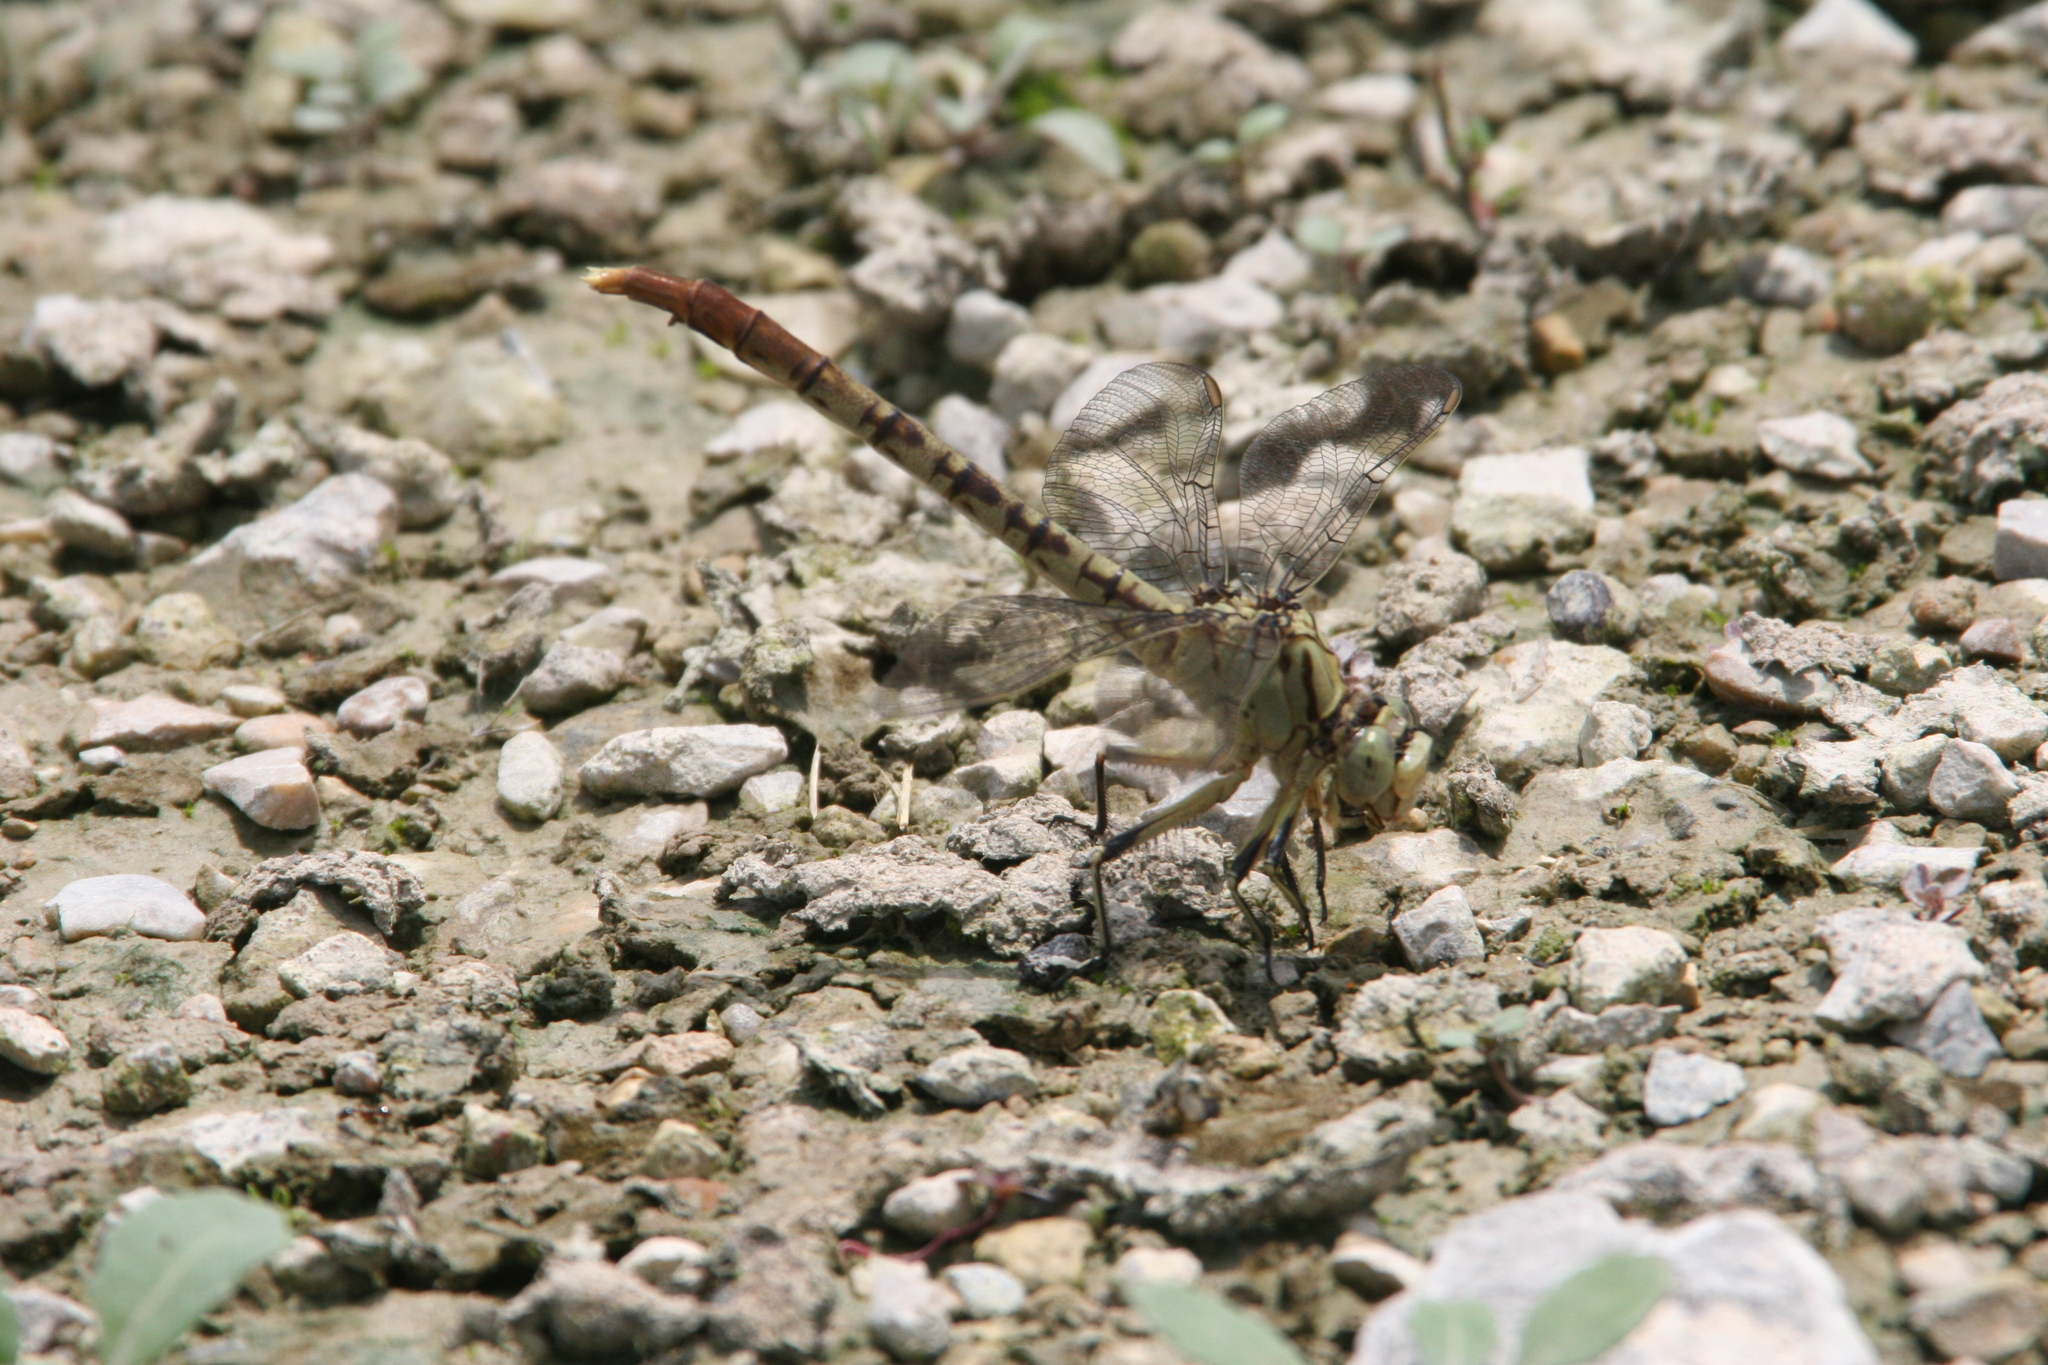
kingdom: Animalia
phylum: Arthropoda
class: Insecta
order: Odonata
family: Gomphidae
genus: Arigomphus
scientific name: Arigomphus submedianus
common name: Jade clubtail
